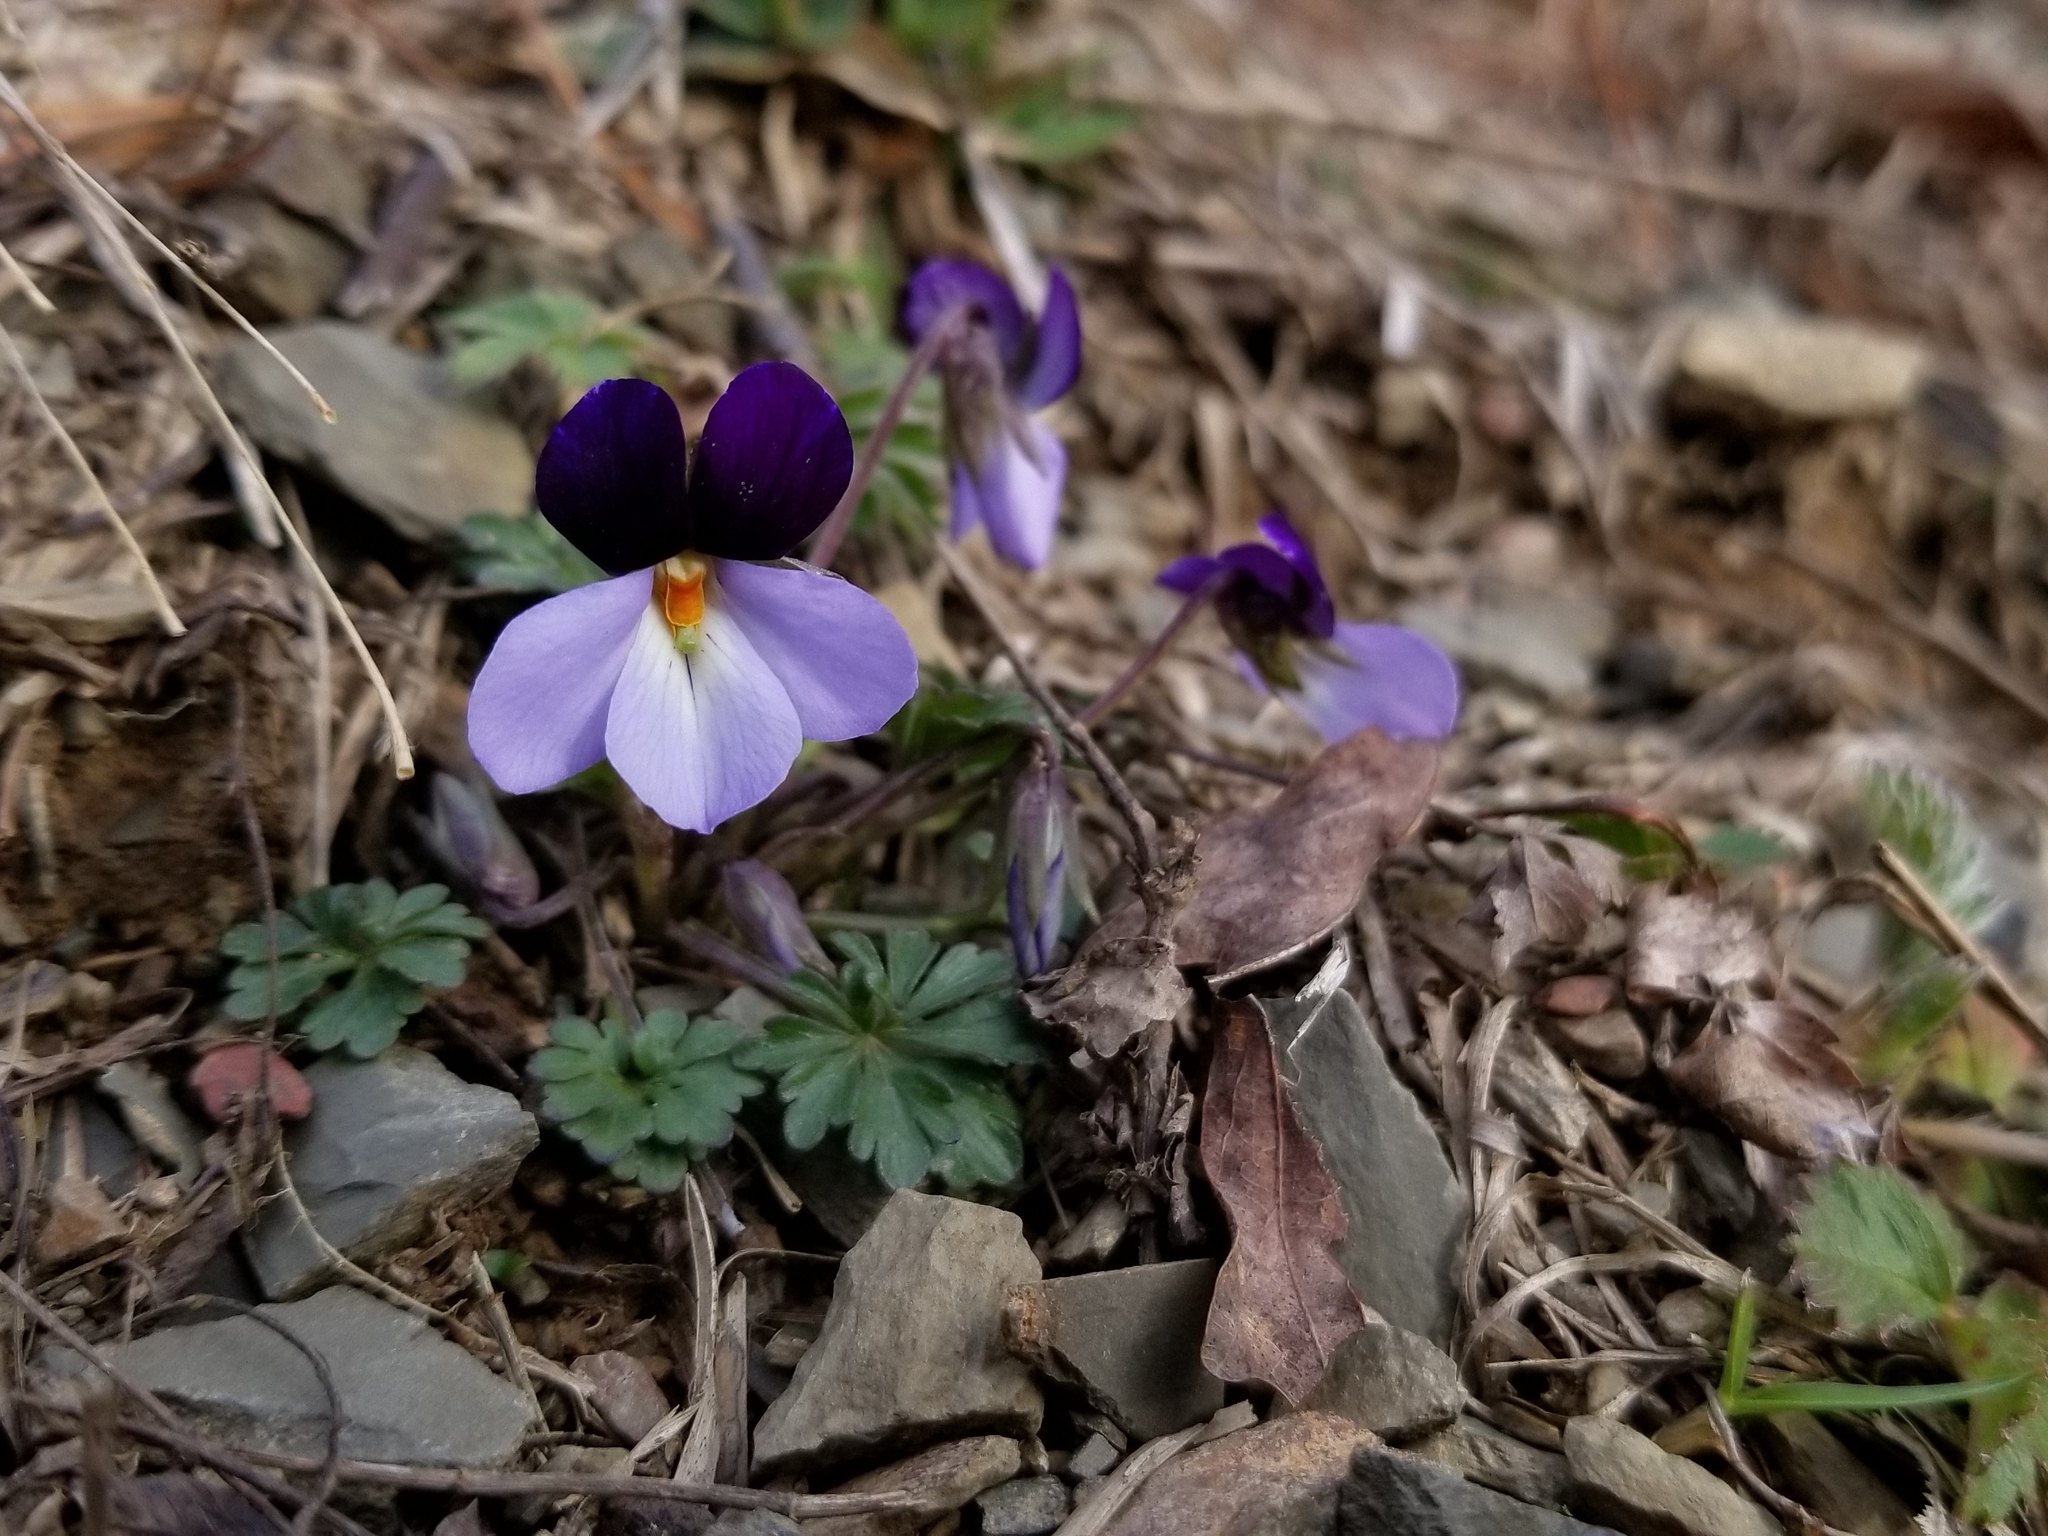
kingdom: Plantae
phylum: Tracheophyta
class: Magnoliopsida
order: Malpighiales
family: Violaceae
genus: Viola
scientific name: Viola pedata
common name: Pansy violet
